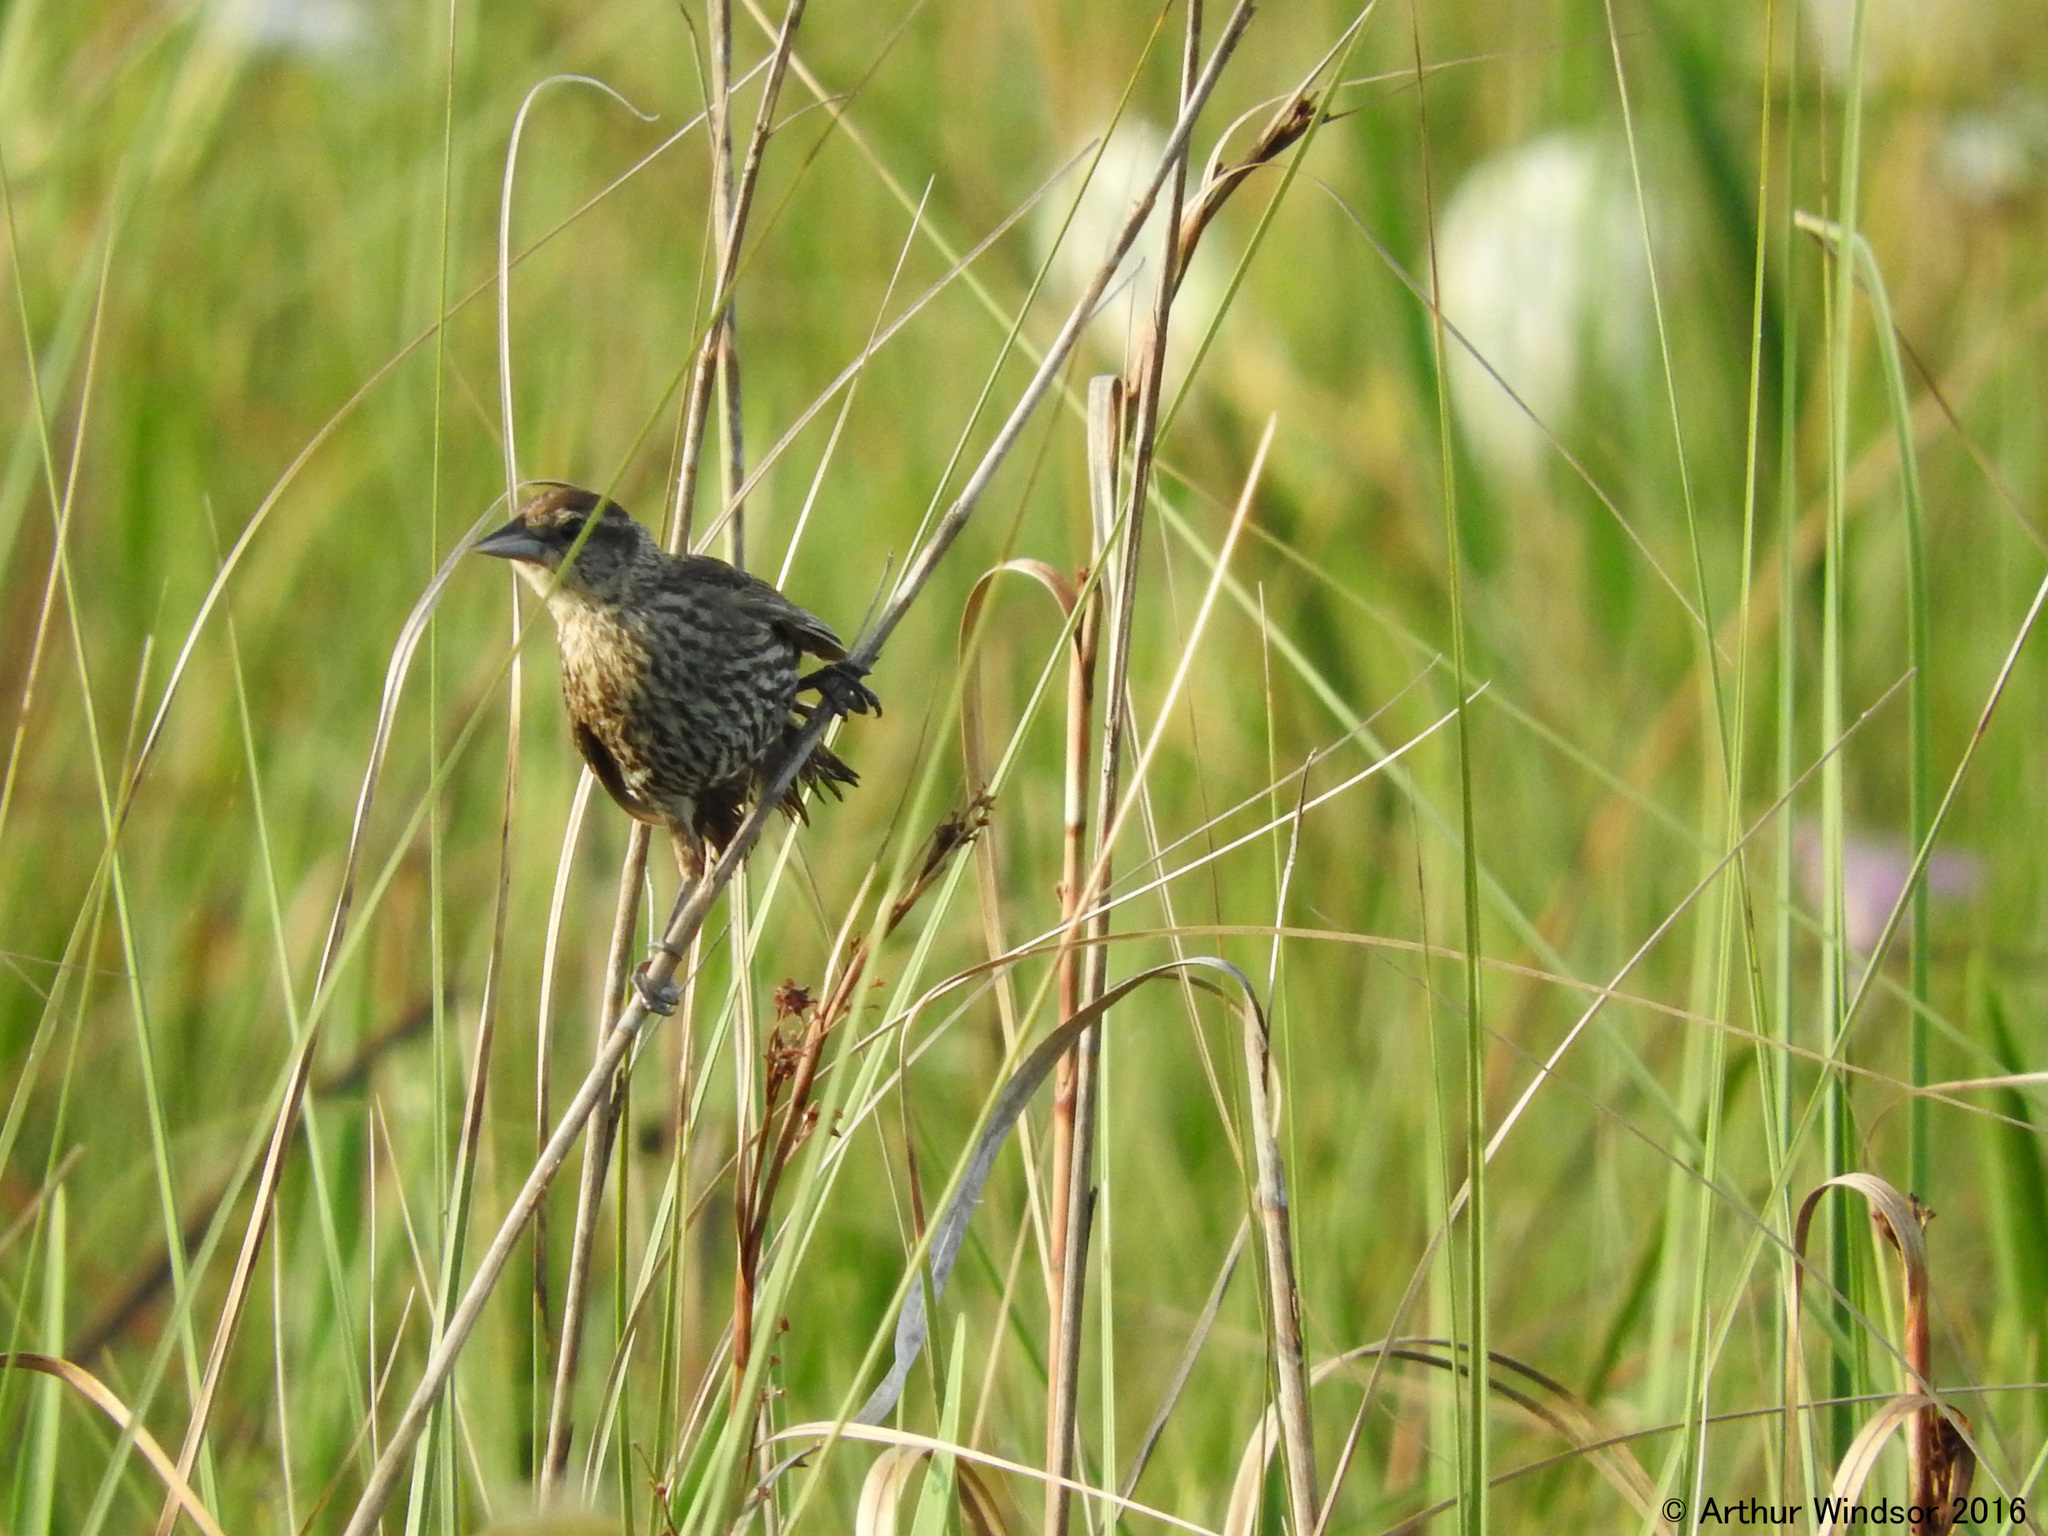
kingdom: Animalia
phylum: Chordata
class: Aves
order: Passeriformes
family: Icteridae
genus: Agelaius
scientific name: Agelaius phoeniceus
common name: Red-winged blackbird
